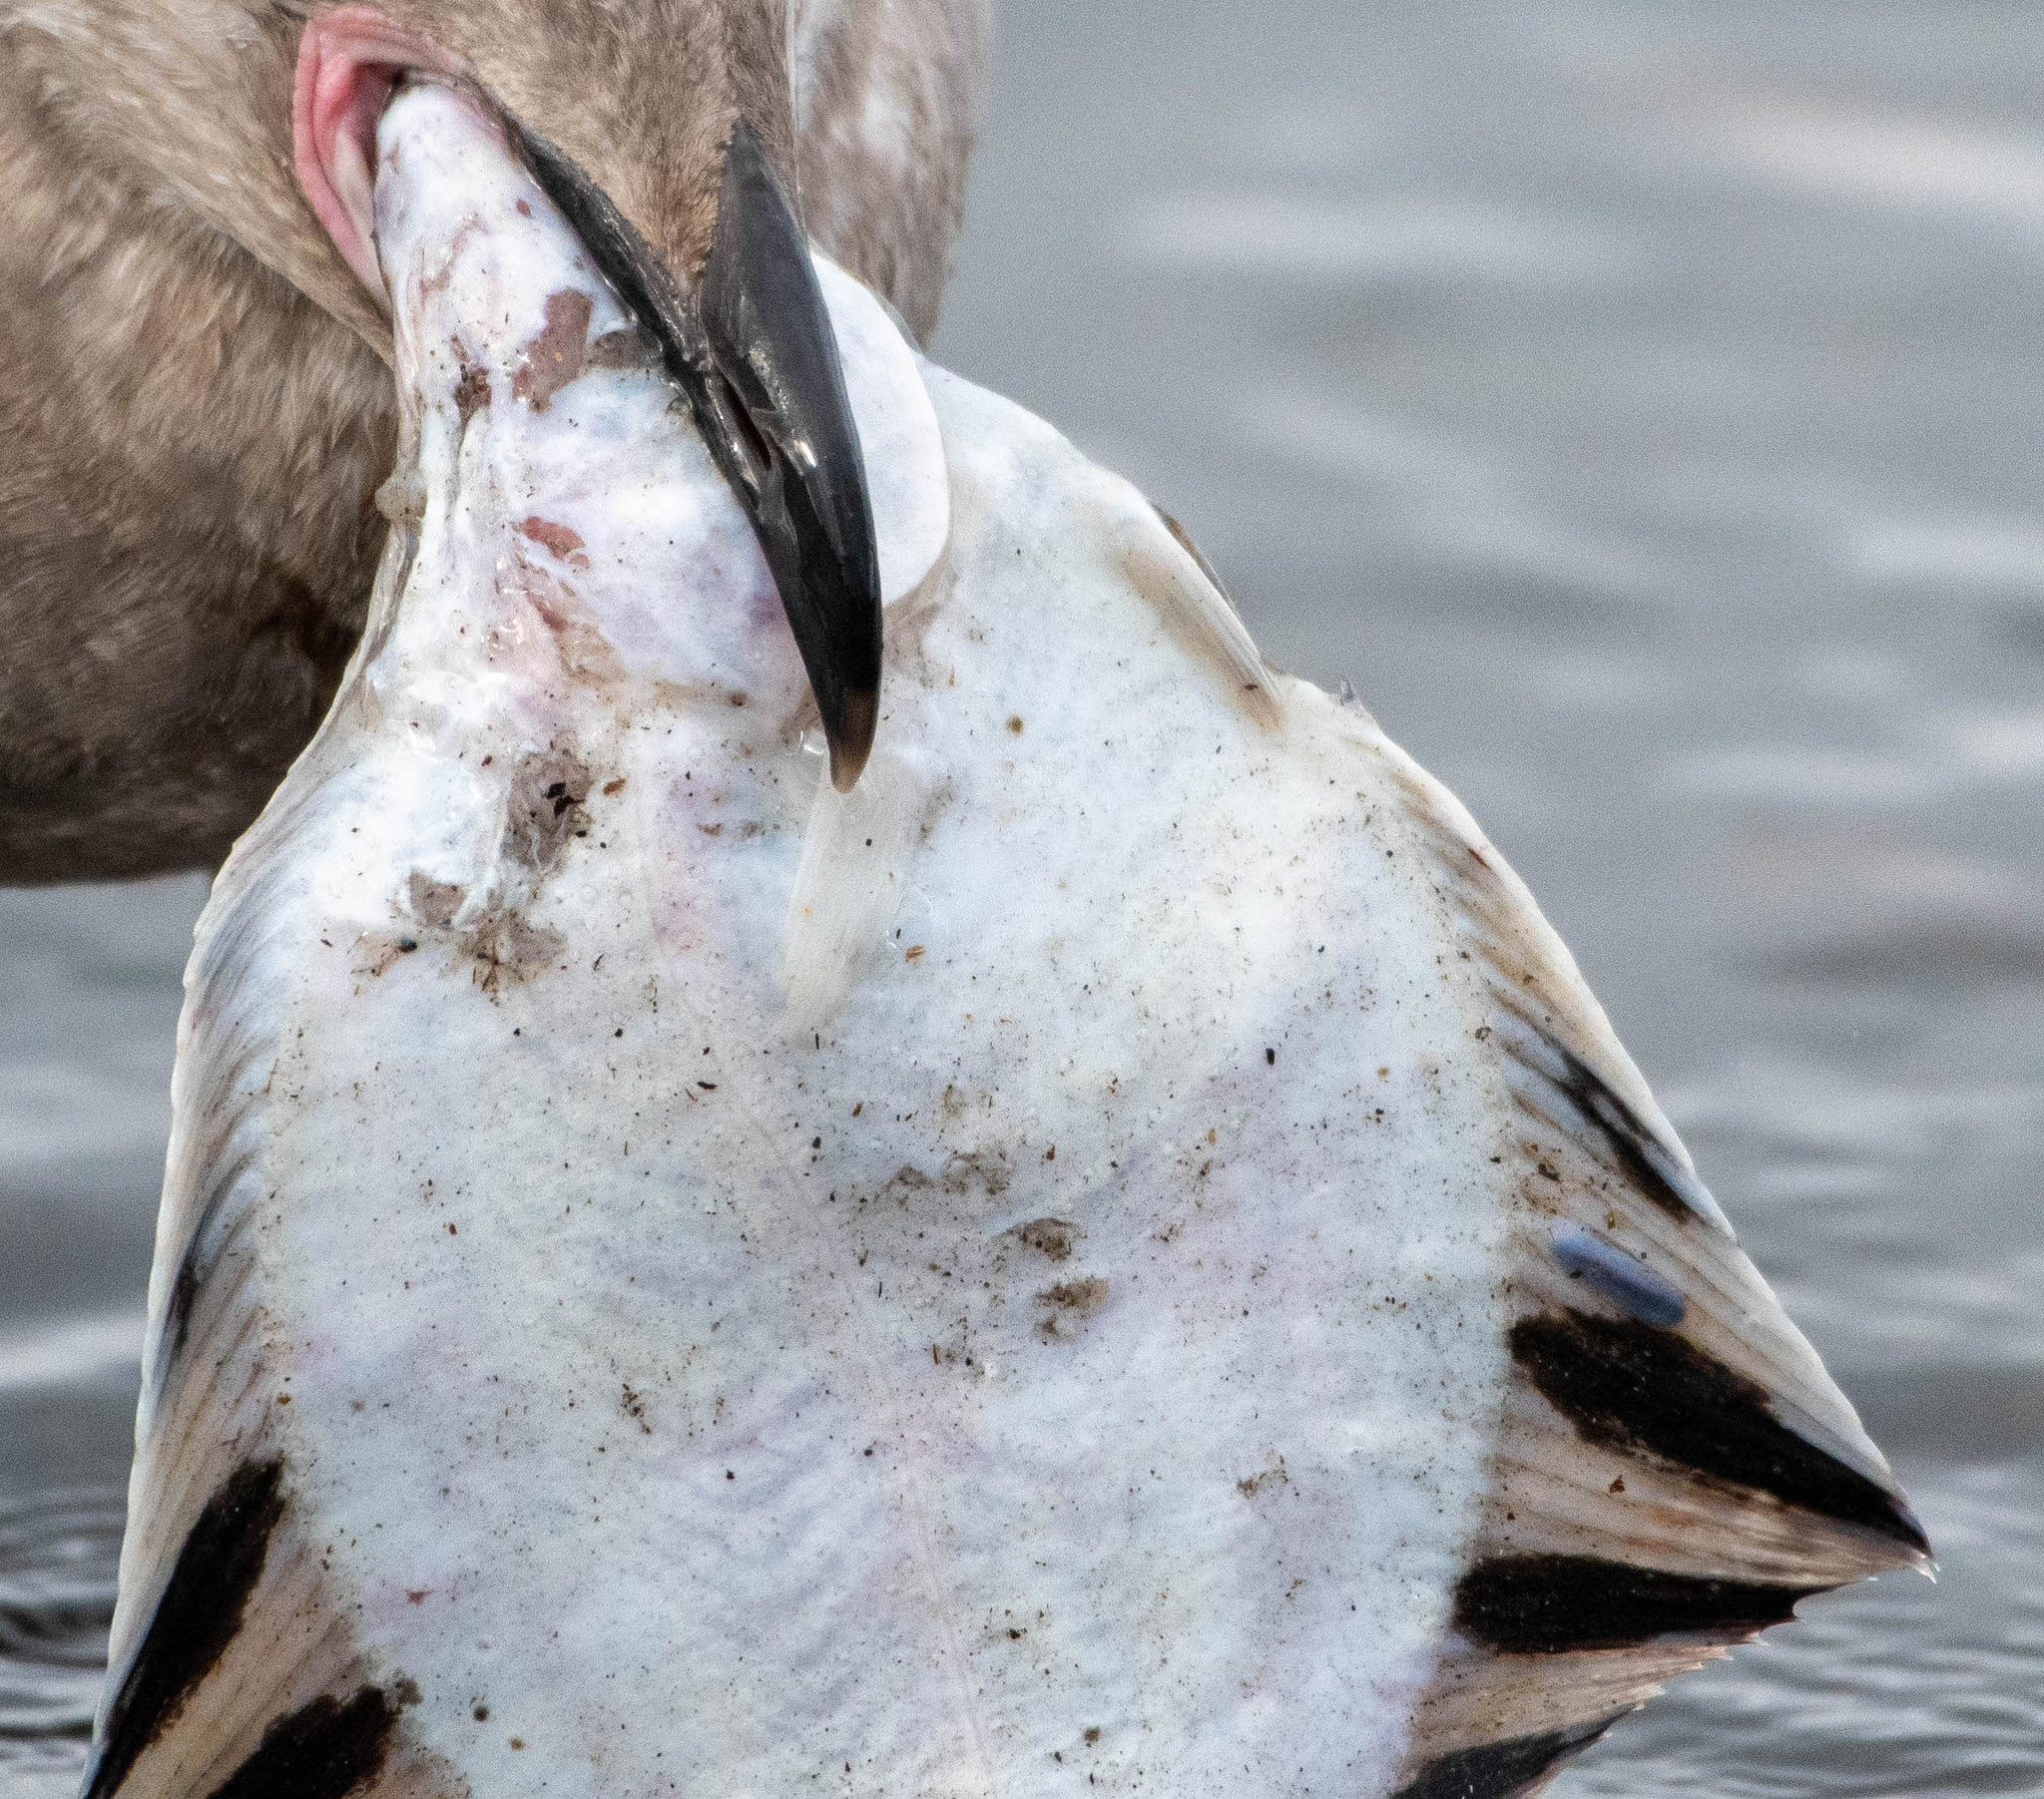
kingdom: Animalia
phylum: Chordata
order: Pleuronectiformes
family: Pleuronectidae
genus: Platichthys
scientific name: Platichthys stellatus
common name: Starry flounder
